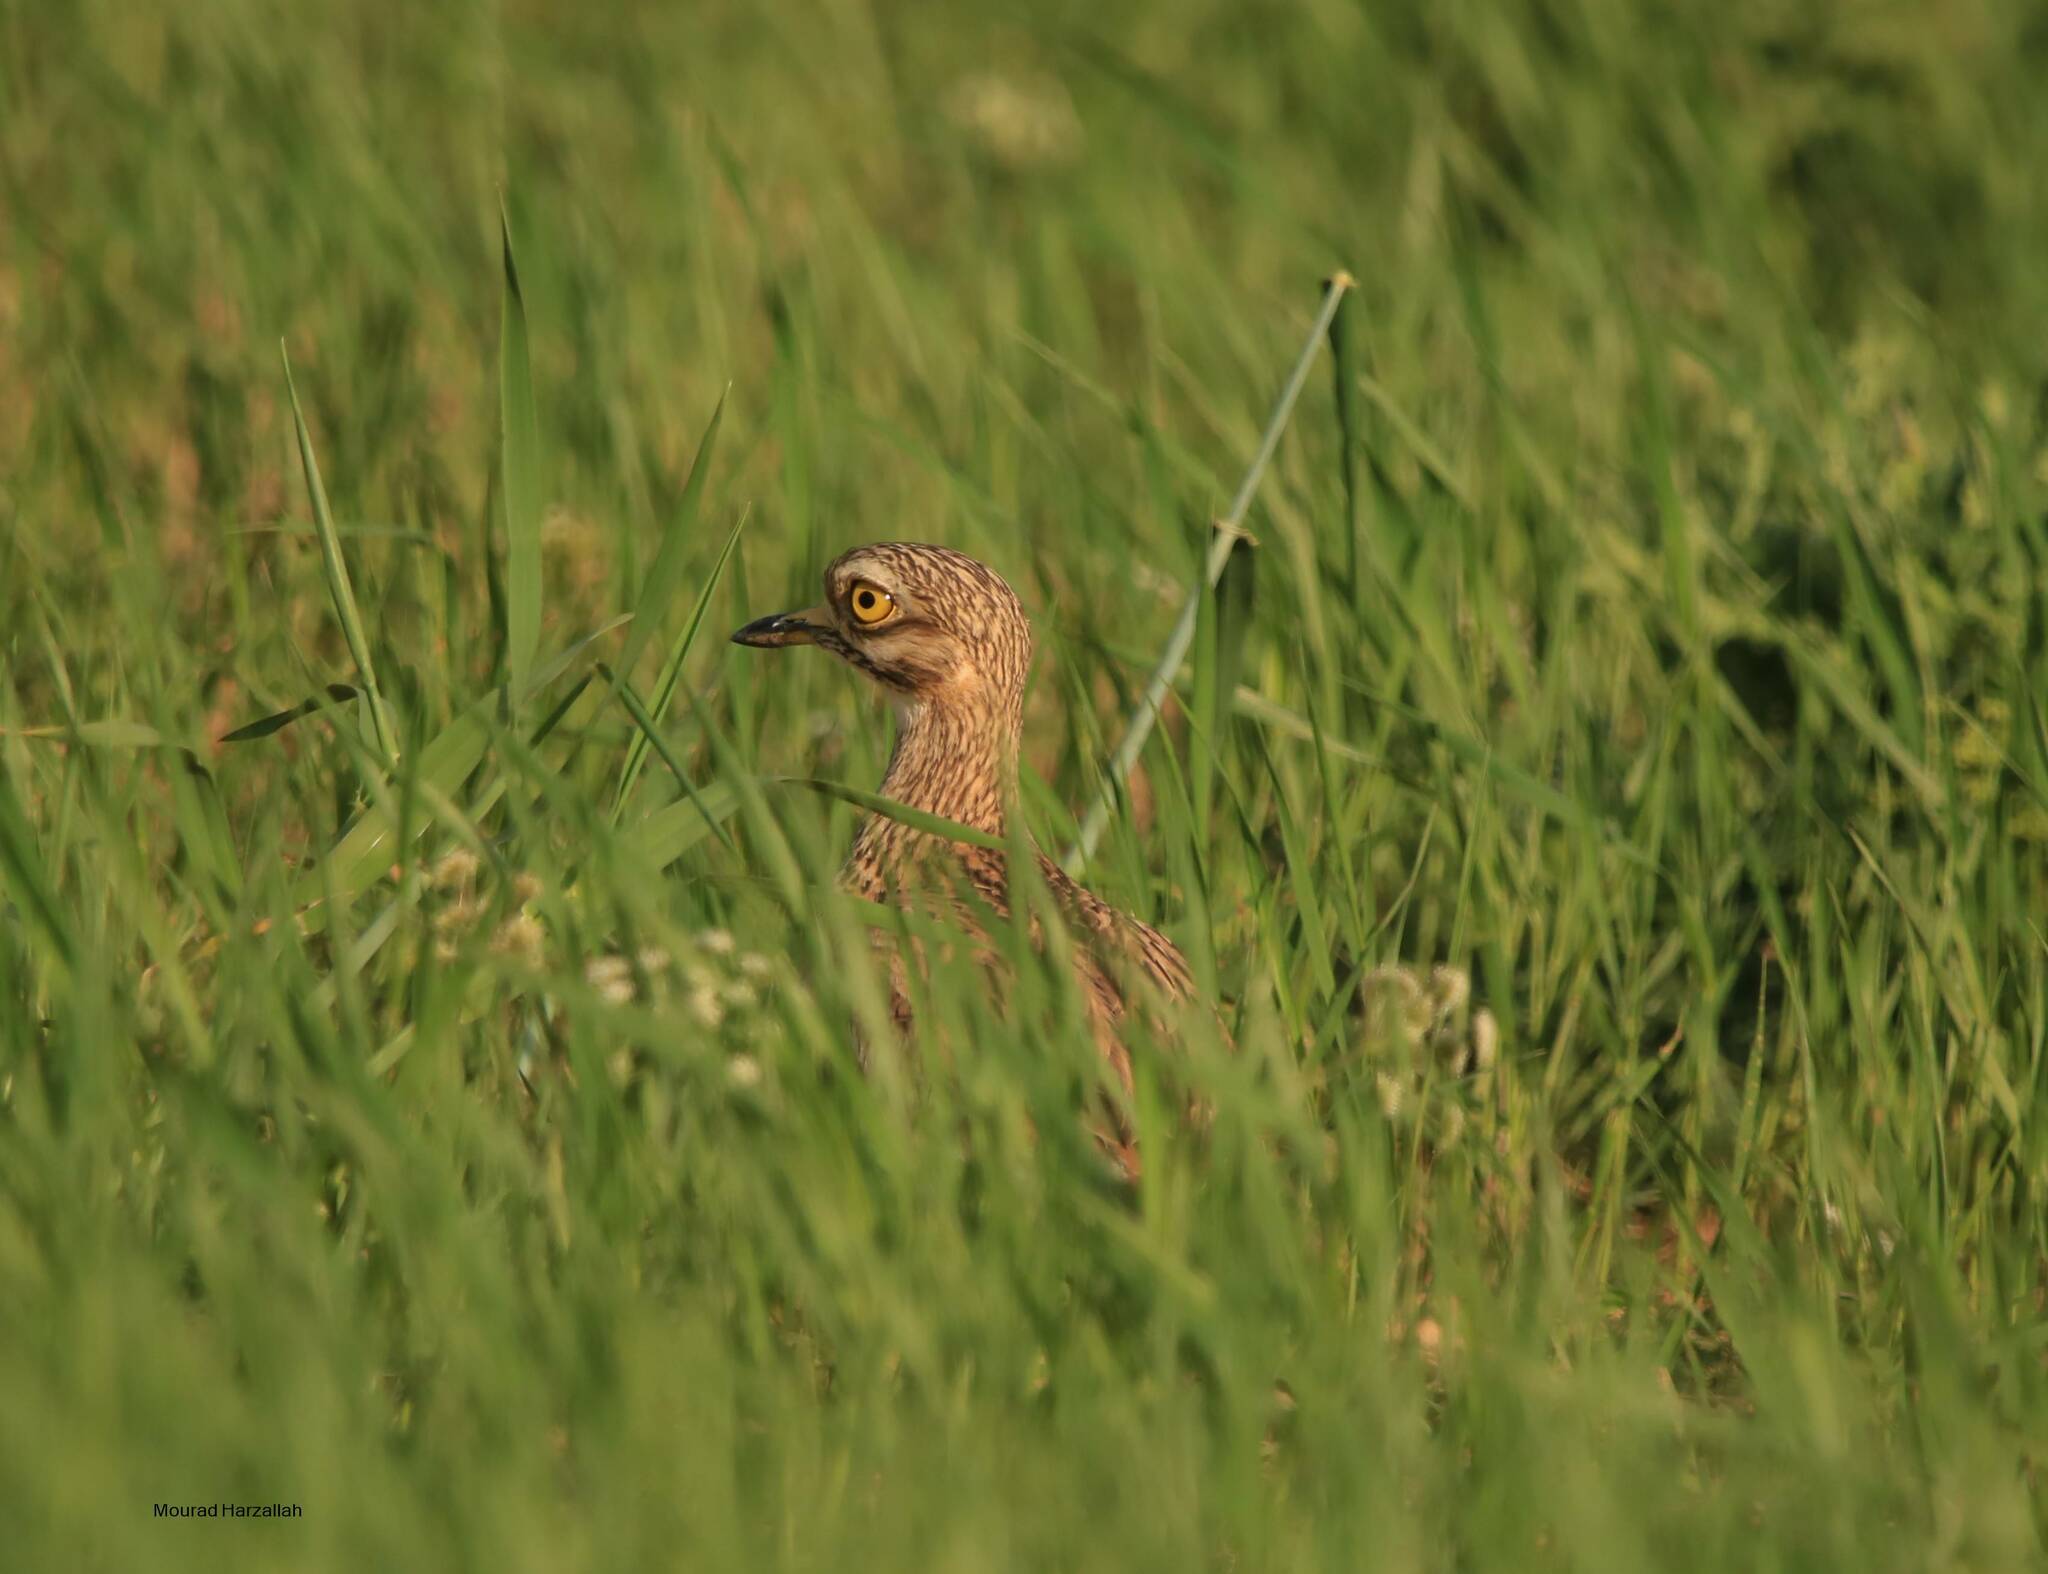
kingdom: Animalia
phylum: Chordata
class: Aves
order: Charadriiformes
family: Burhinidae
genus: Burhinus
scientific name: Burhinus oedicnemus
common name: Eurasian stone-curlew
